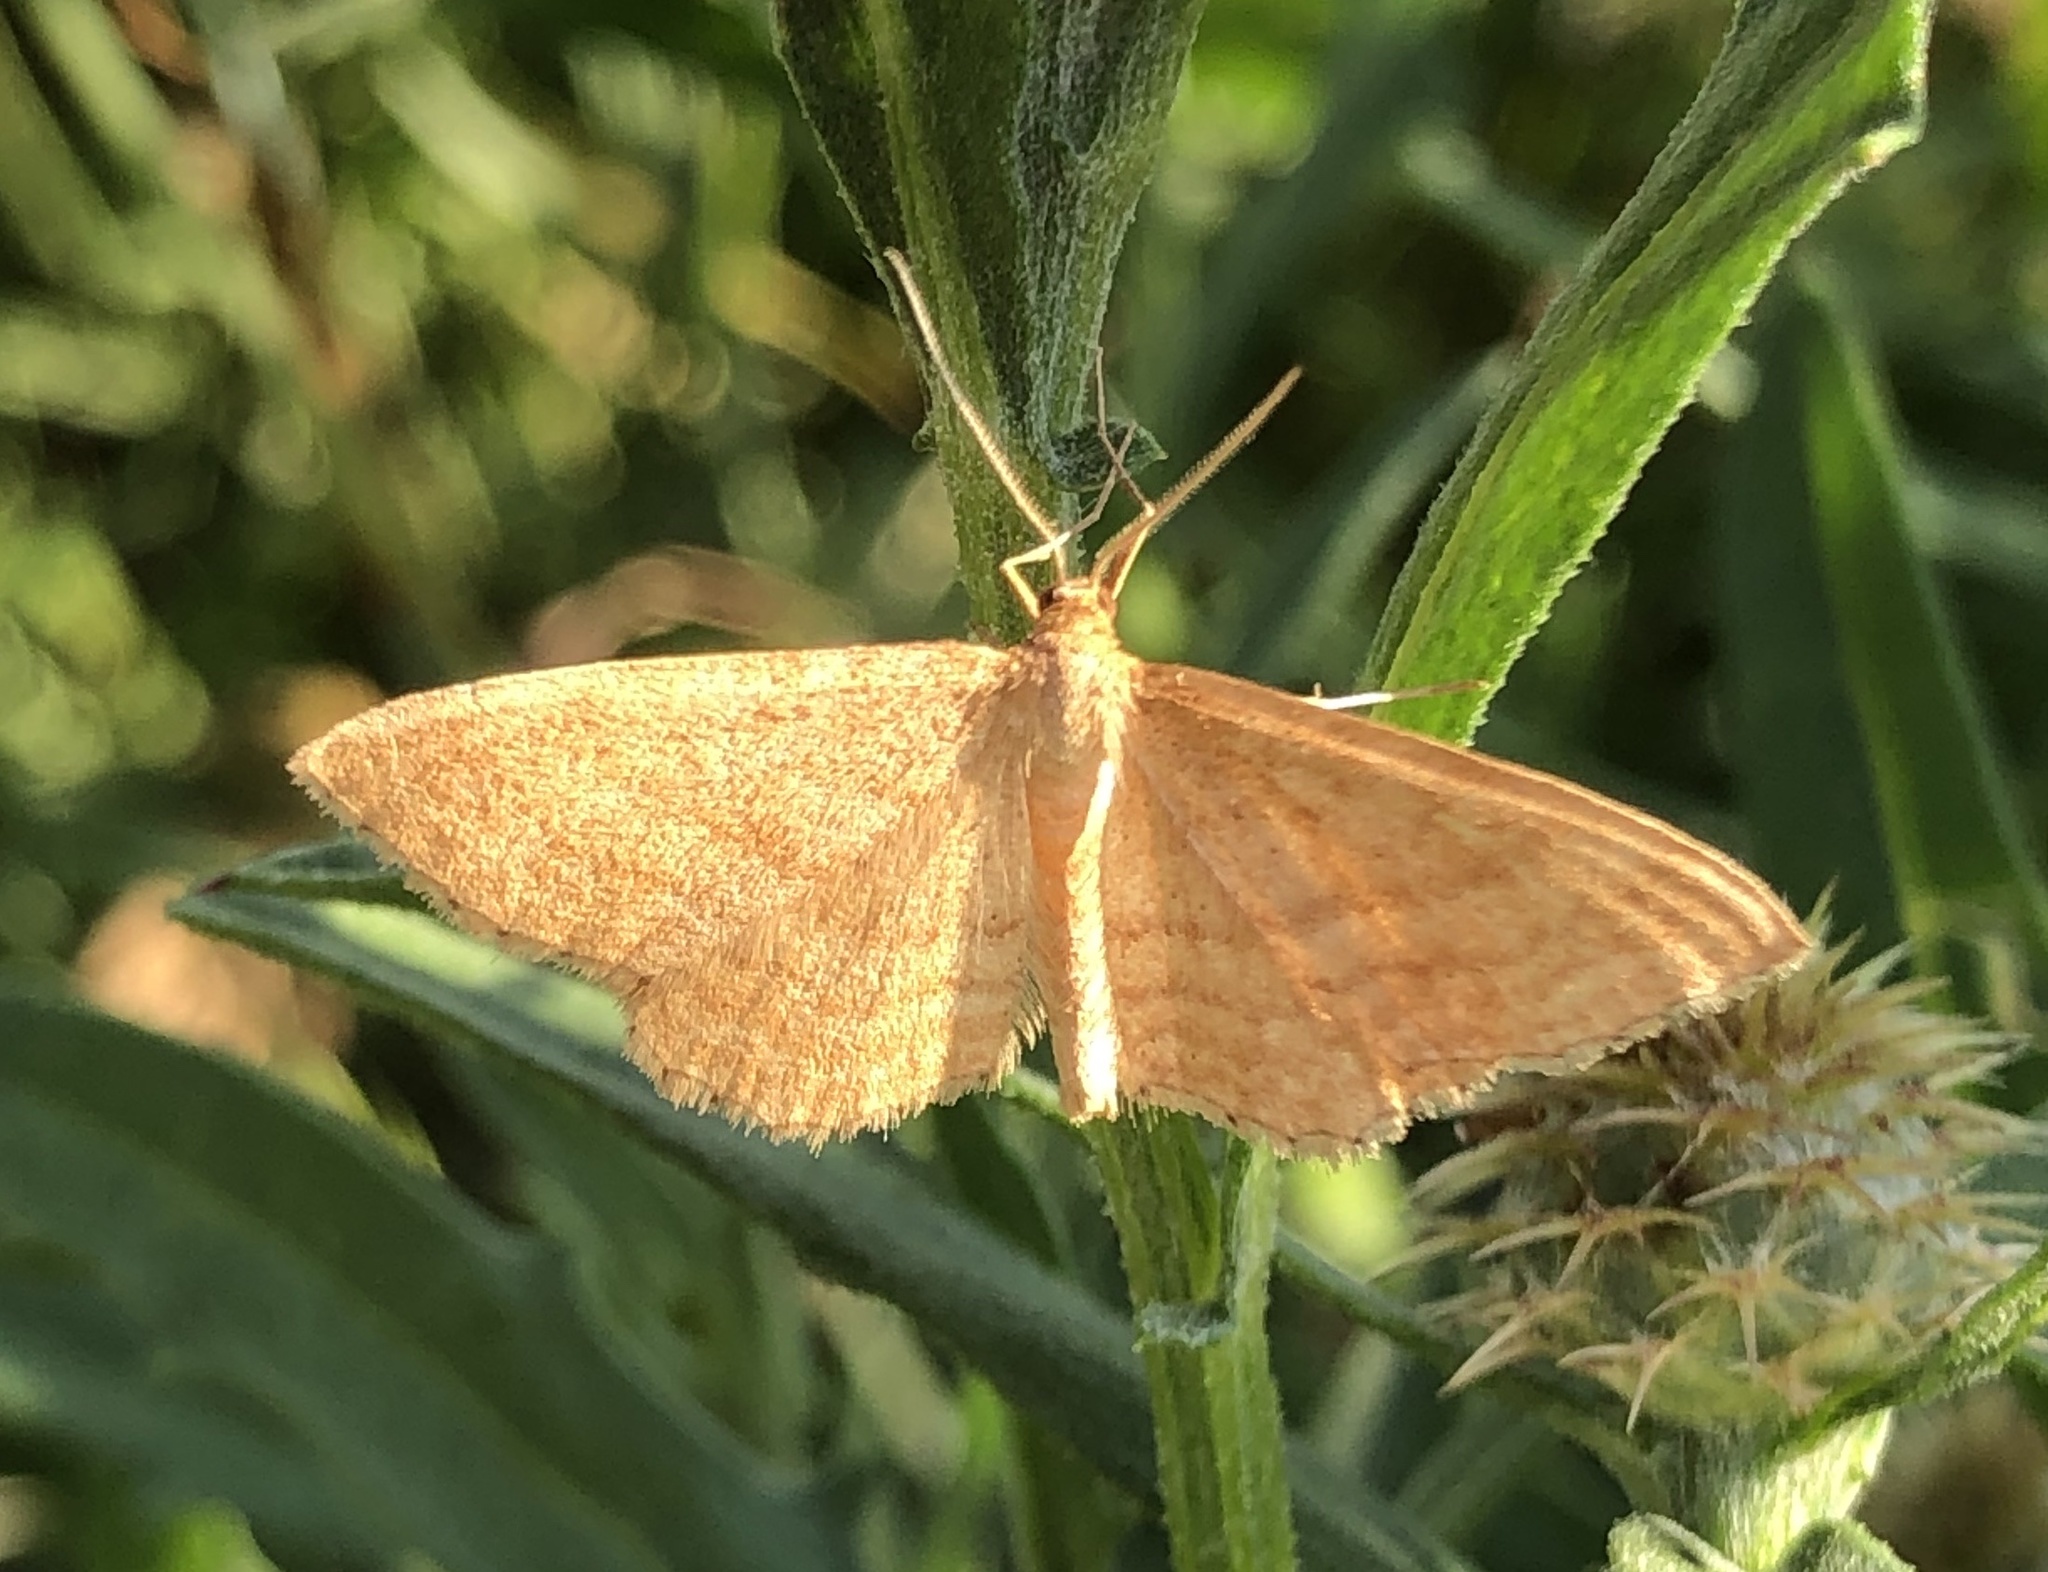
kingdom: Animalia
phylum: Arthropoda
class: Insecta
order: Lepidoptera
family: Geometridae
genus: Idaea
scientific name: Idaea ochrata
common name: Bright wave
